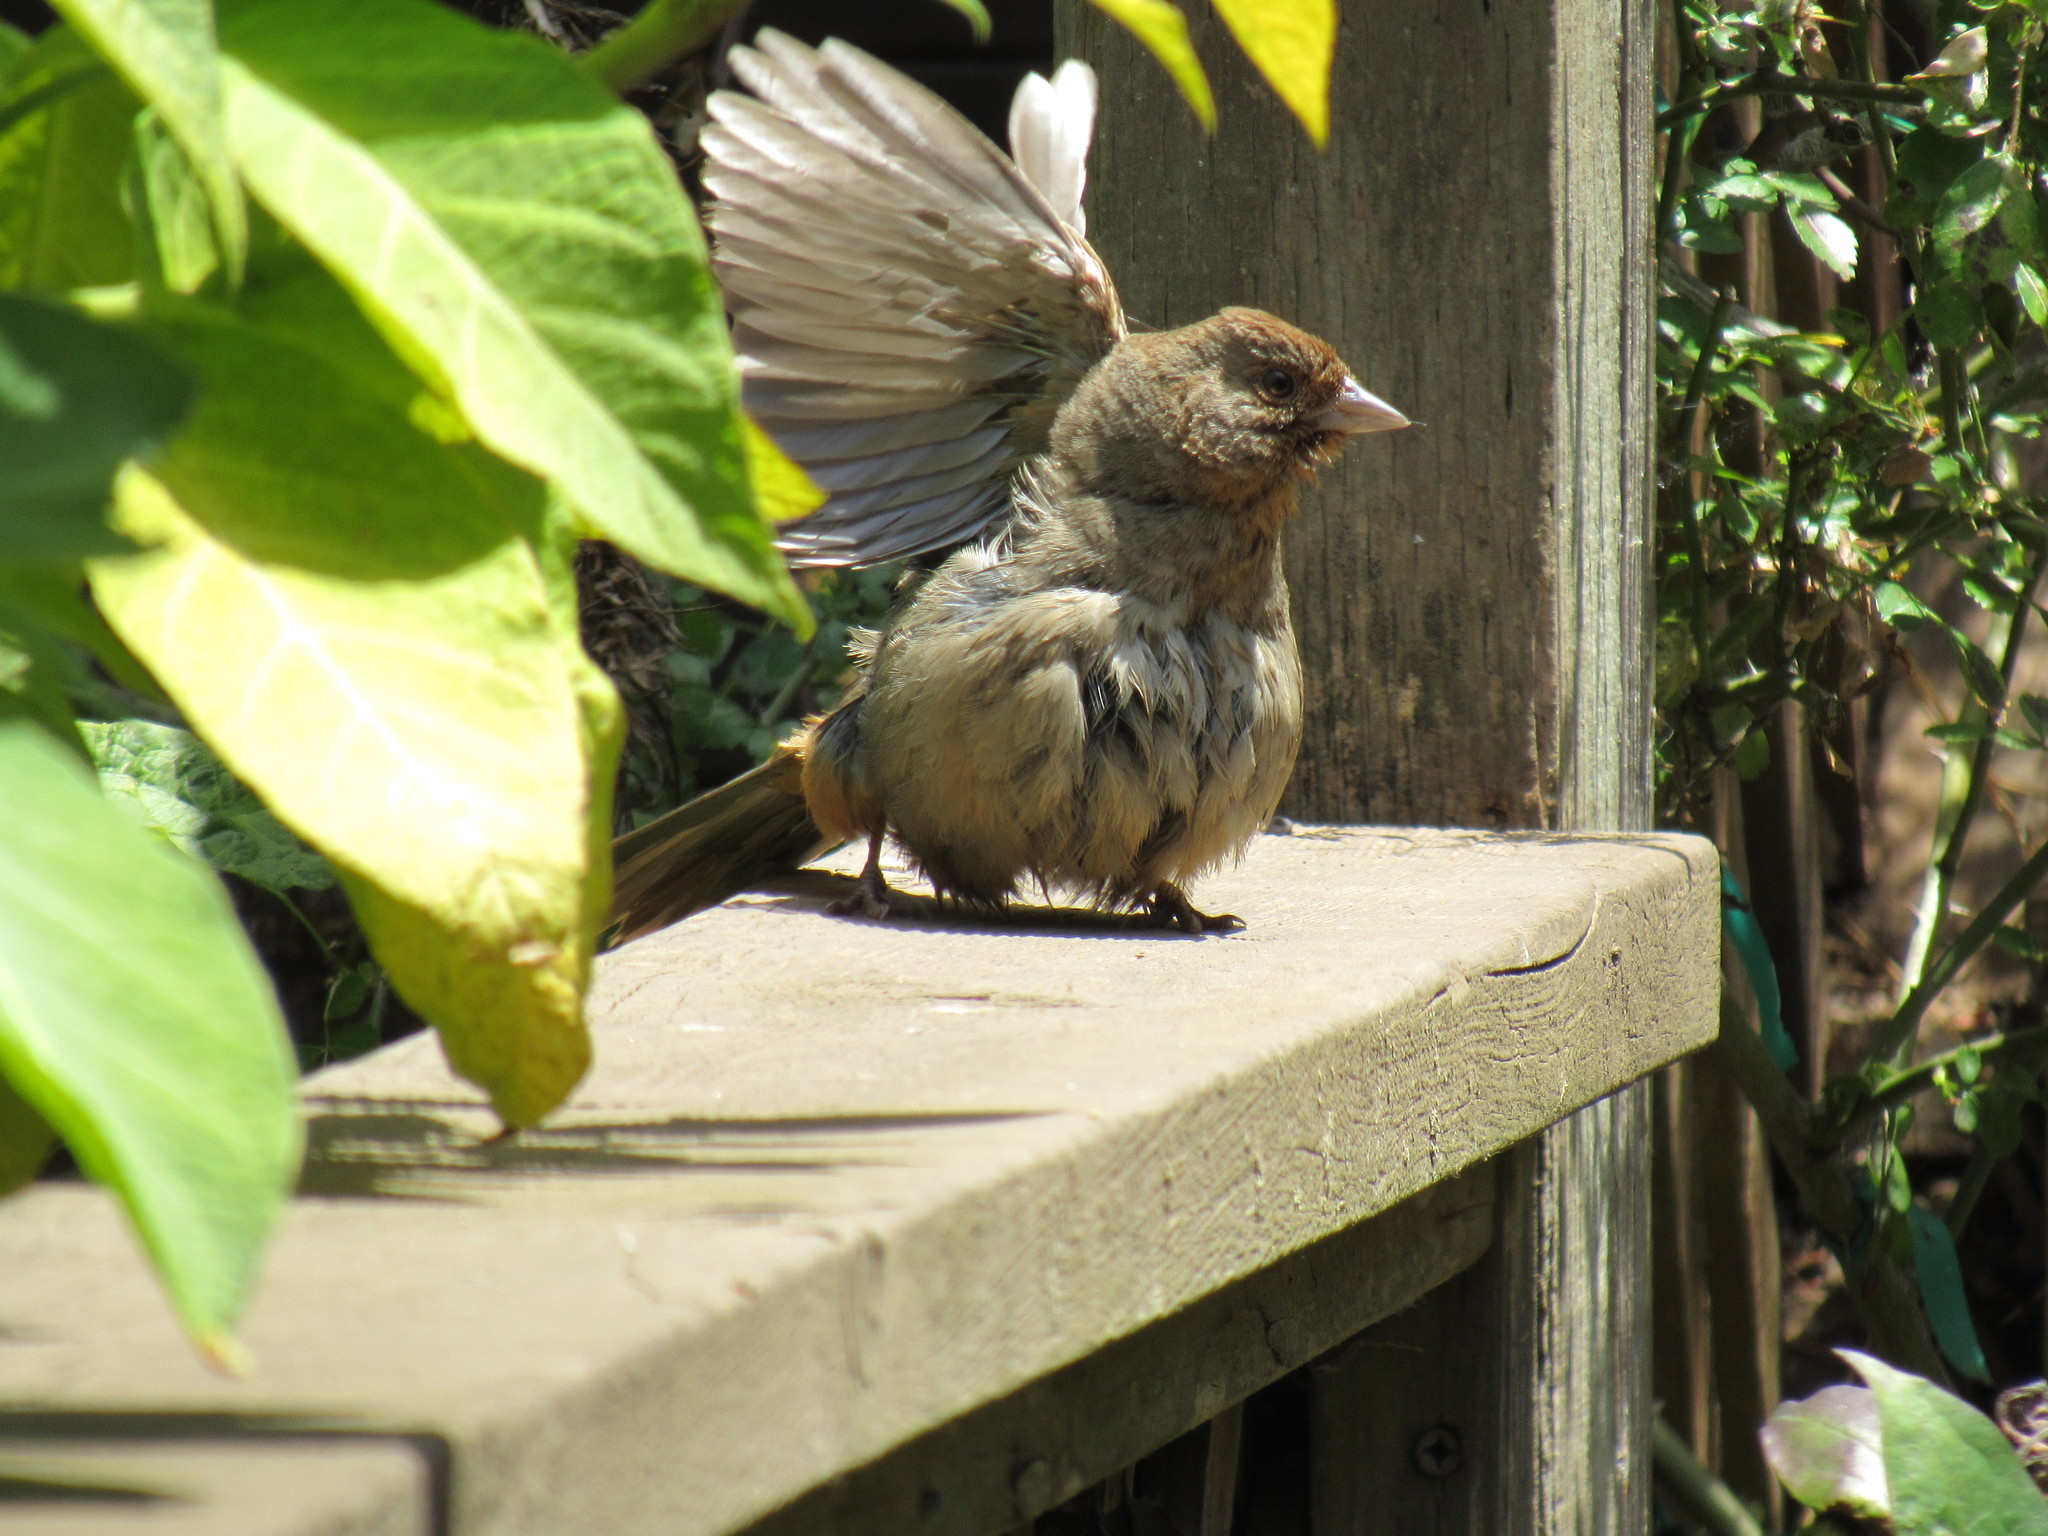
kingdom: Animalia
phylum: Chordata
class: Aves
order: Passeriformes
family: Passerellidae
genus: Melozone
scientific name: Melozone crissalis
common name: California towhee
